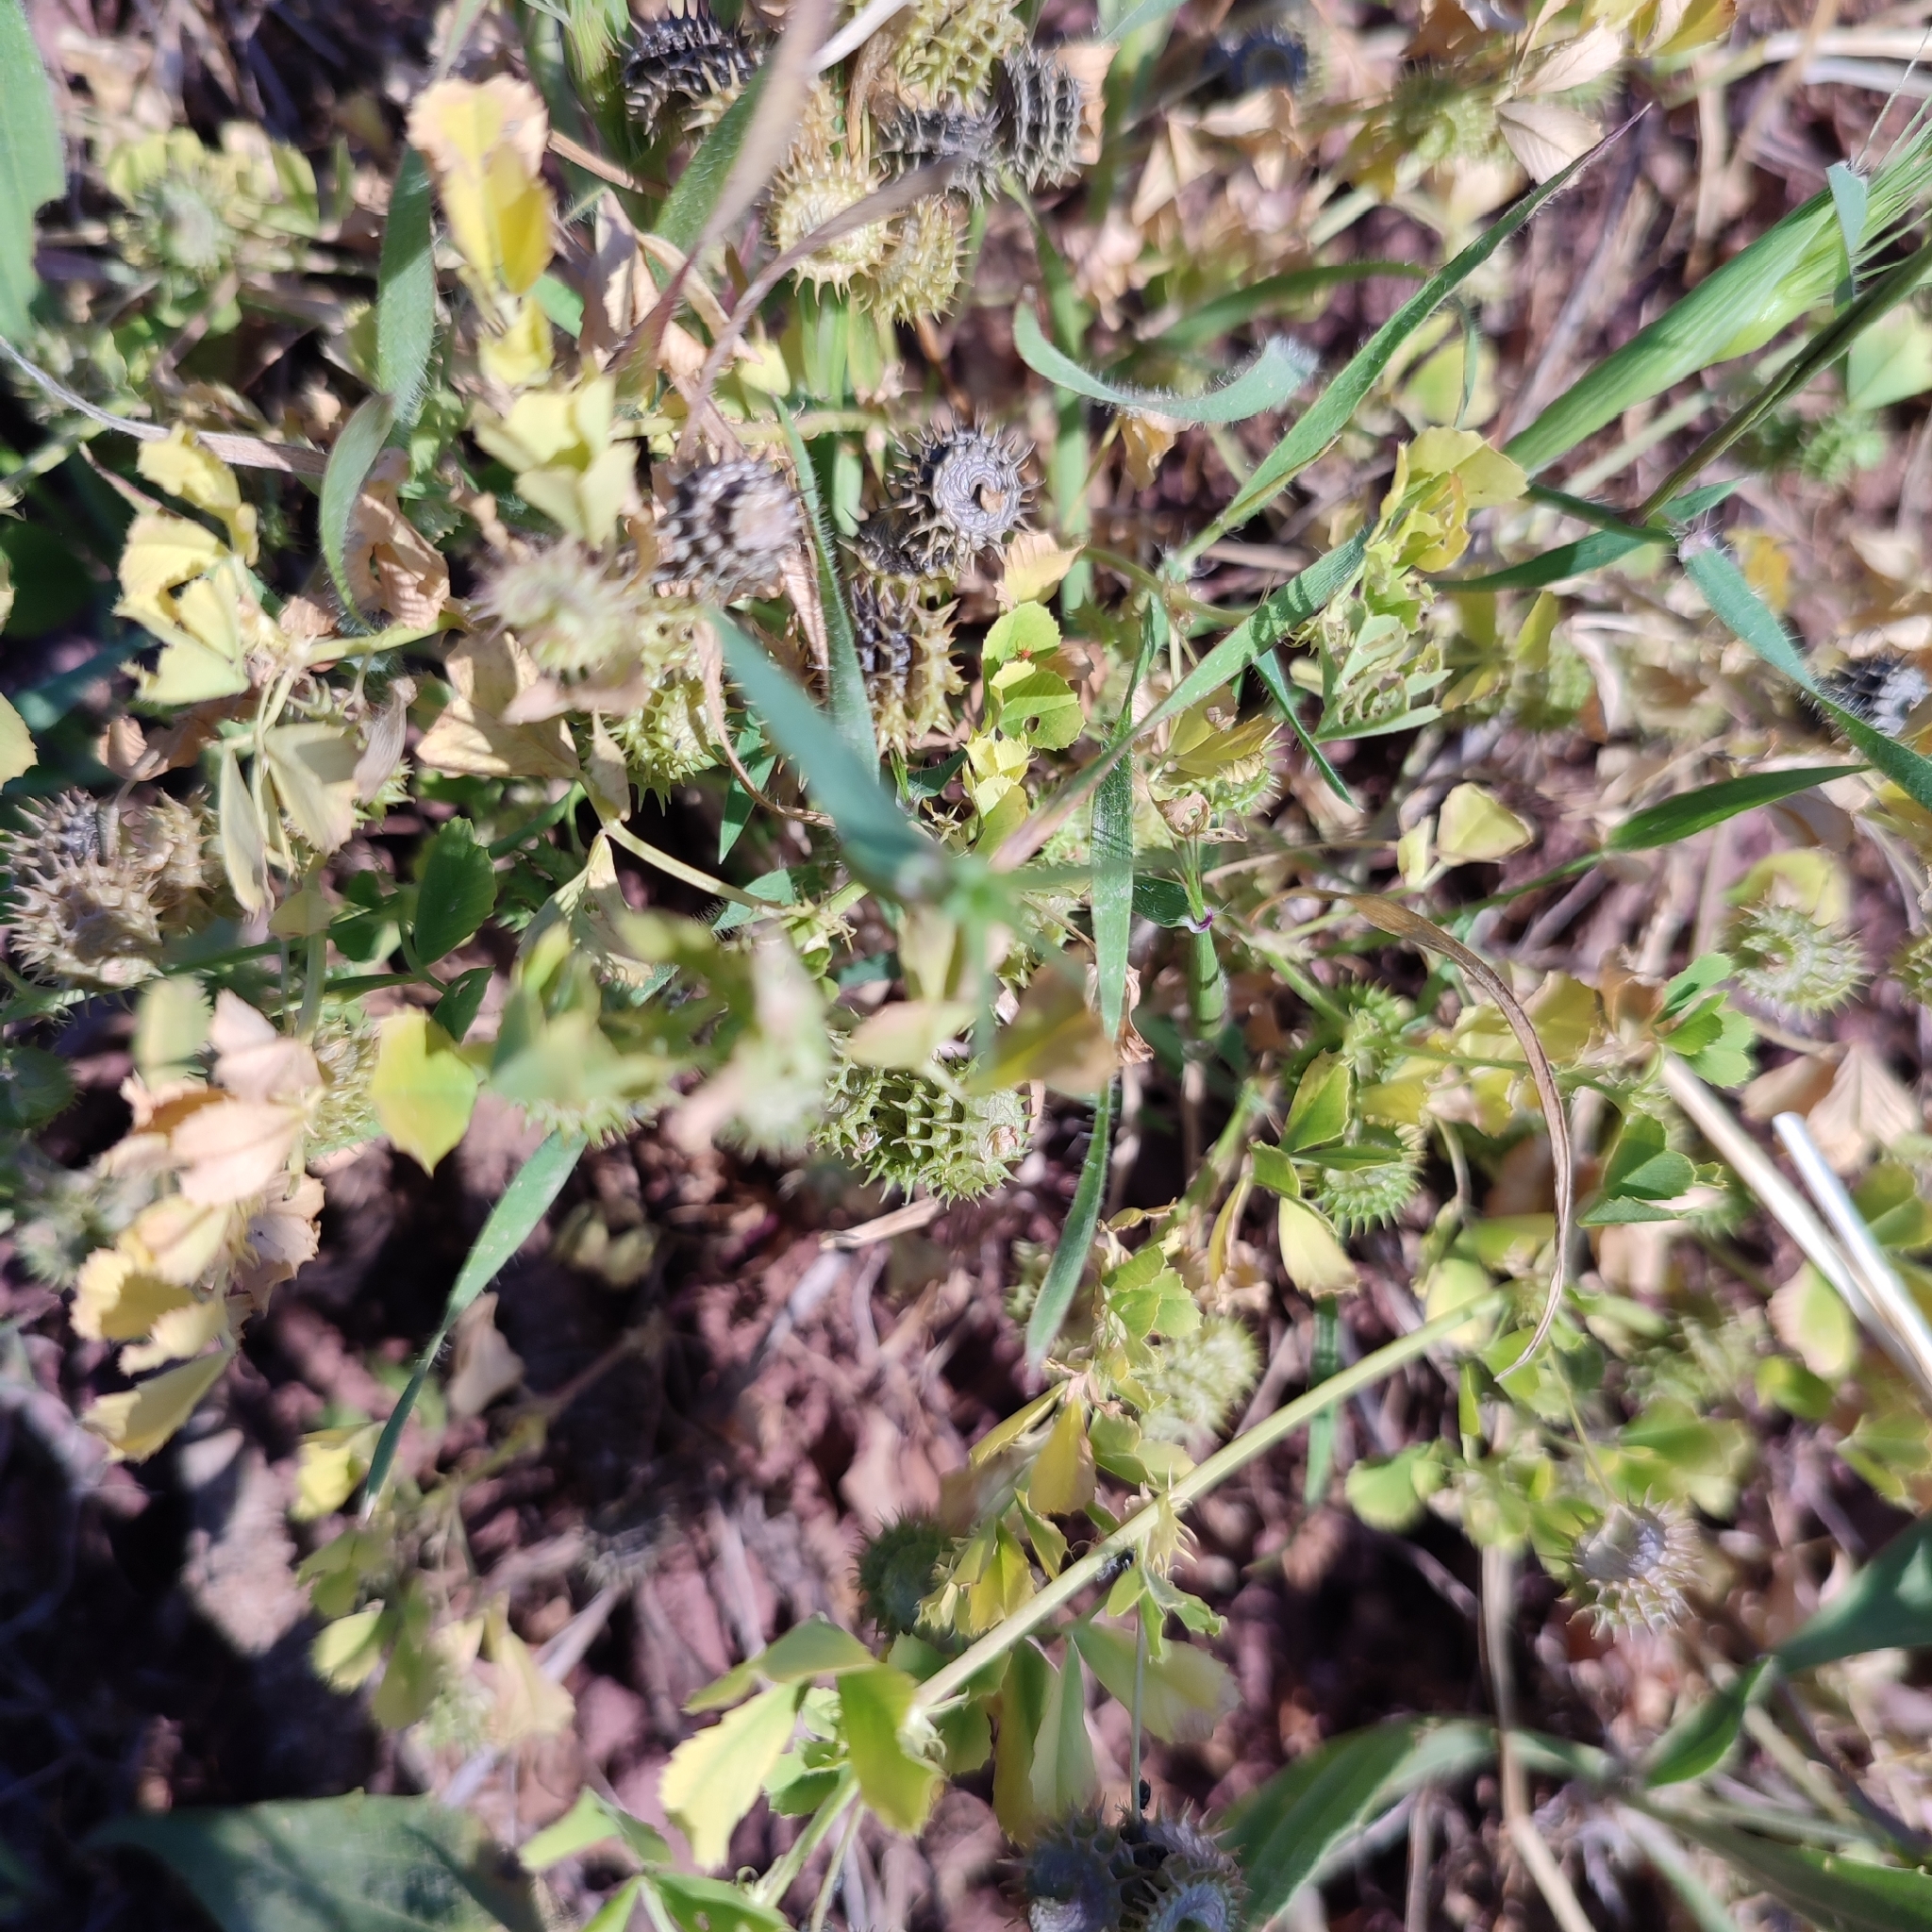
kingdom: Plantae
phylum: Tracheophyta
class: Magnoliopsida
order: Fabales
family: Fabaceae
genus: Medicago
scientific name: Medicago polymorpha
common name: Burclover
